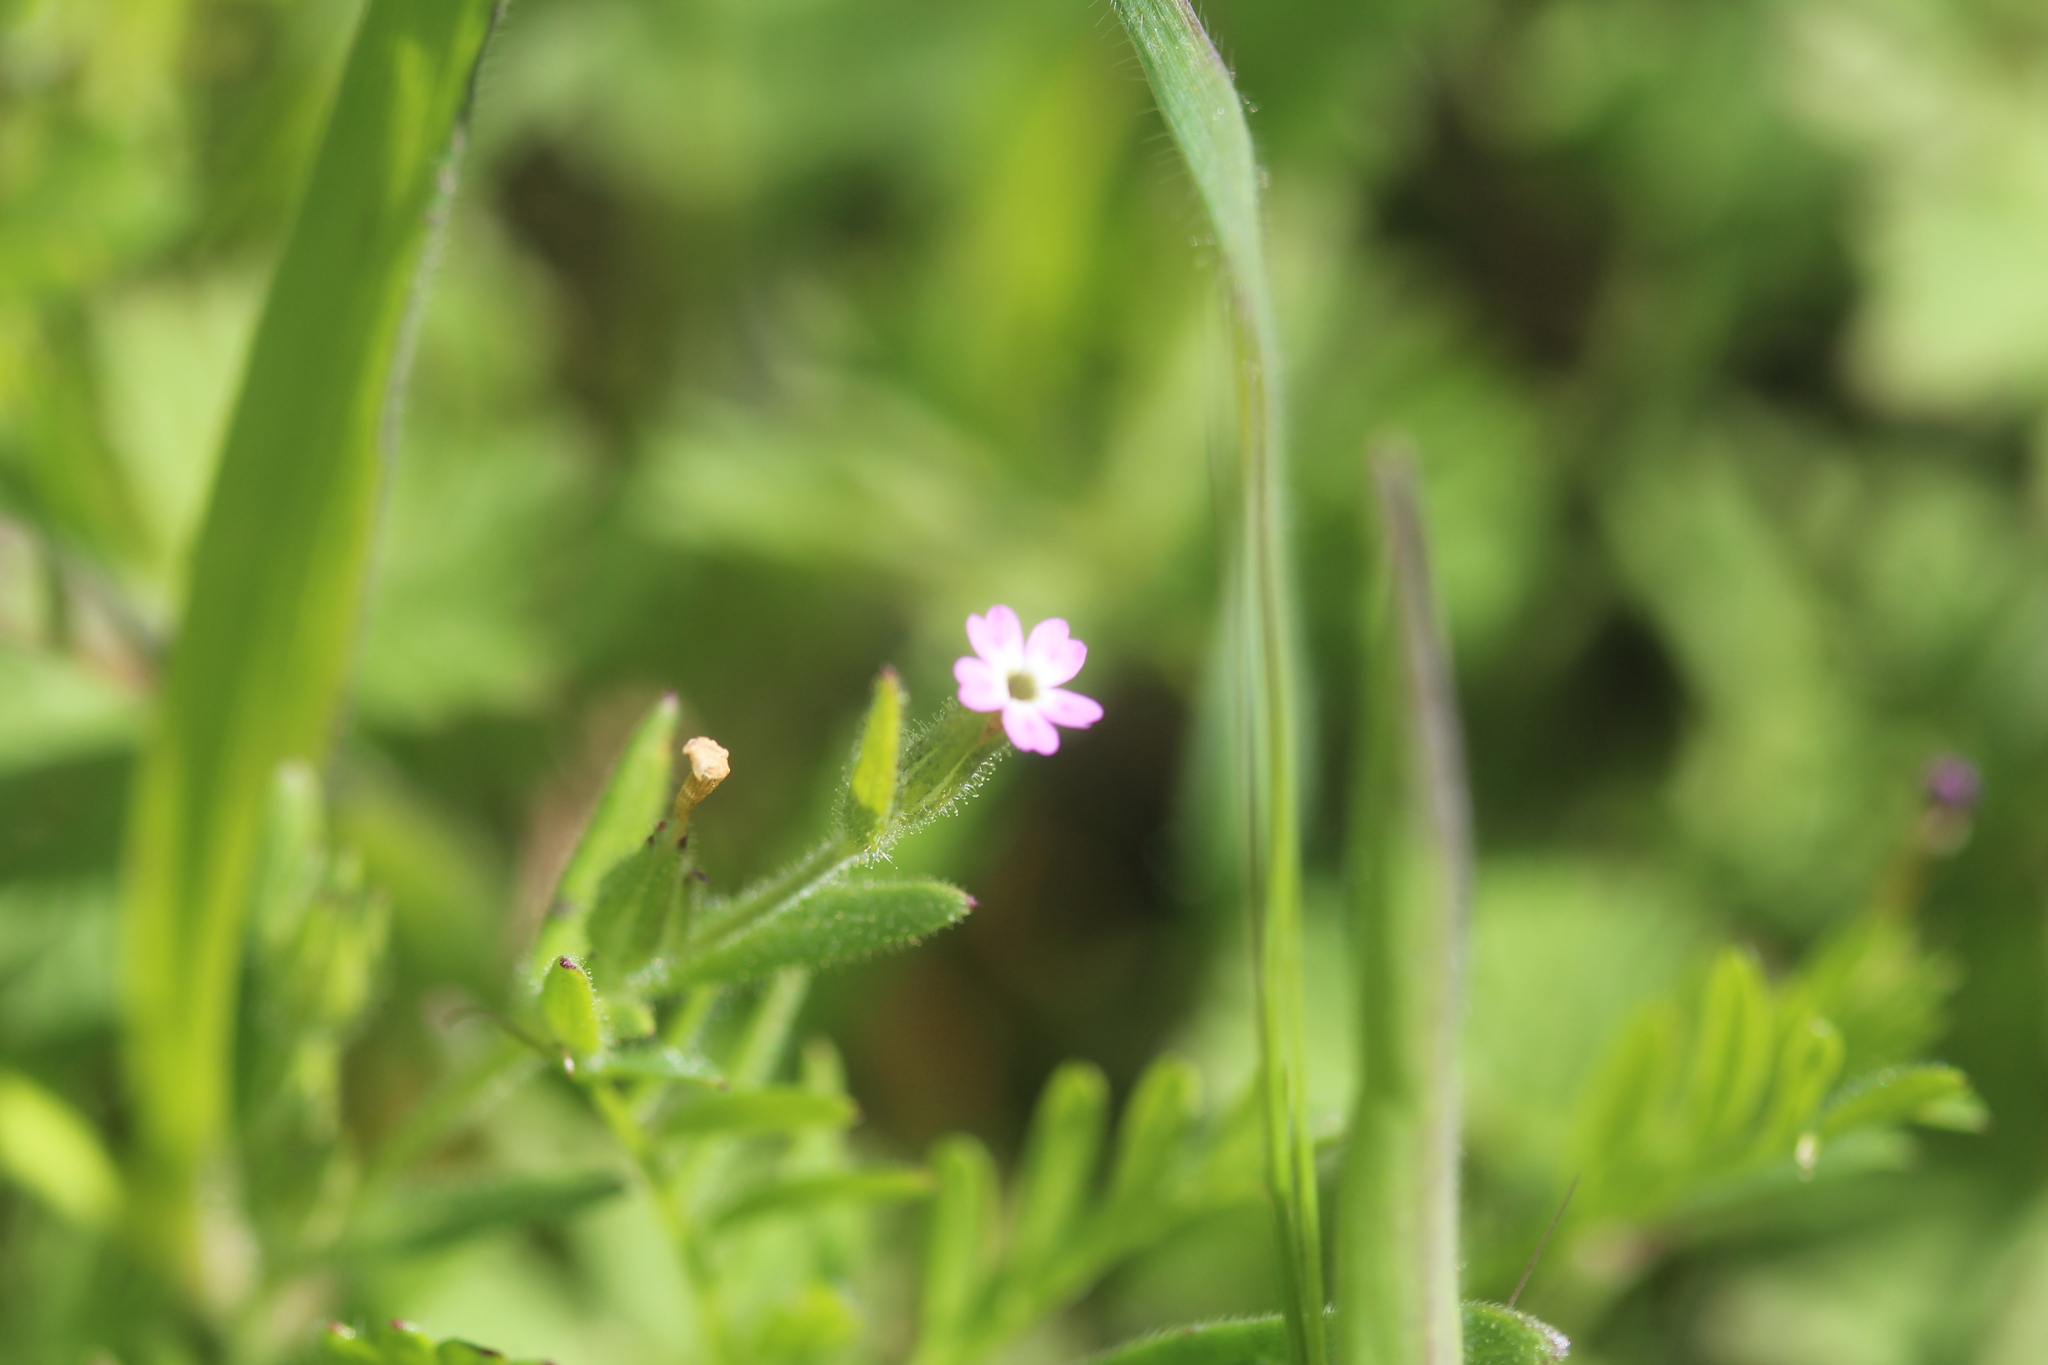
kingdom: Plantae
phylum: Tracheophyta
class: Magnoliopsida
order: Ericales
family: Polemoniaceae
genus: Phlox
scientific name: Phlox gracilis
